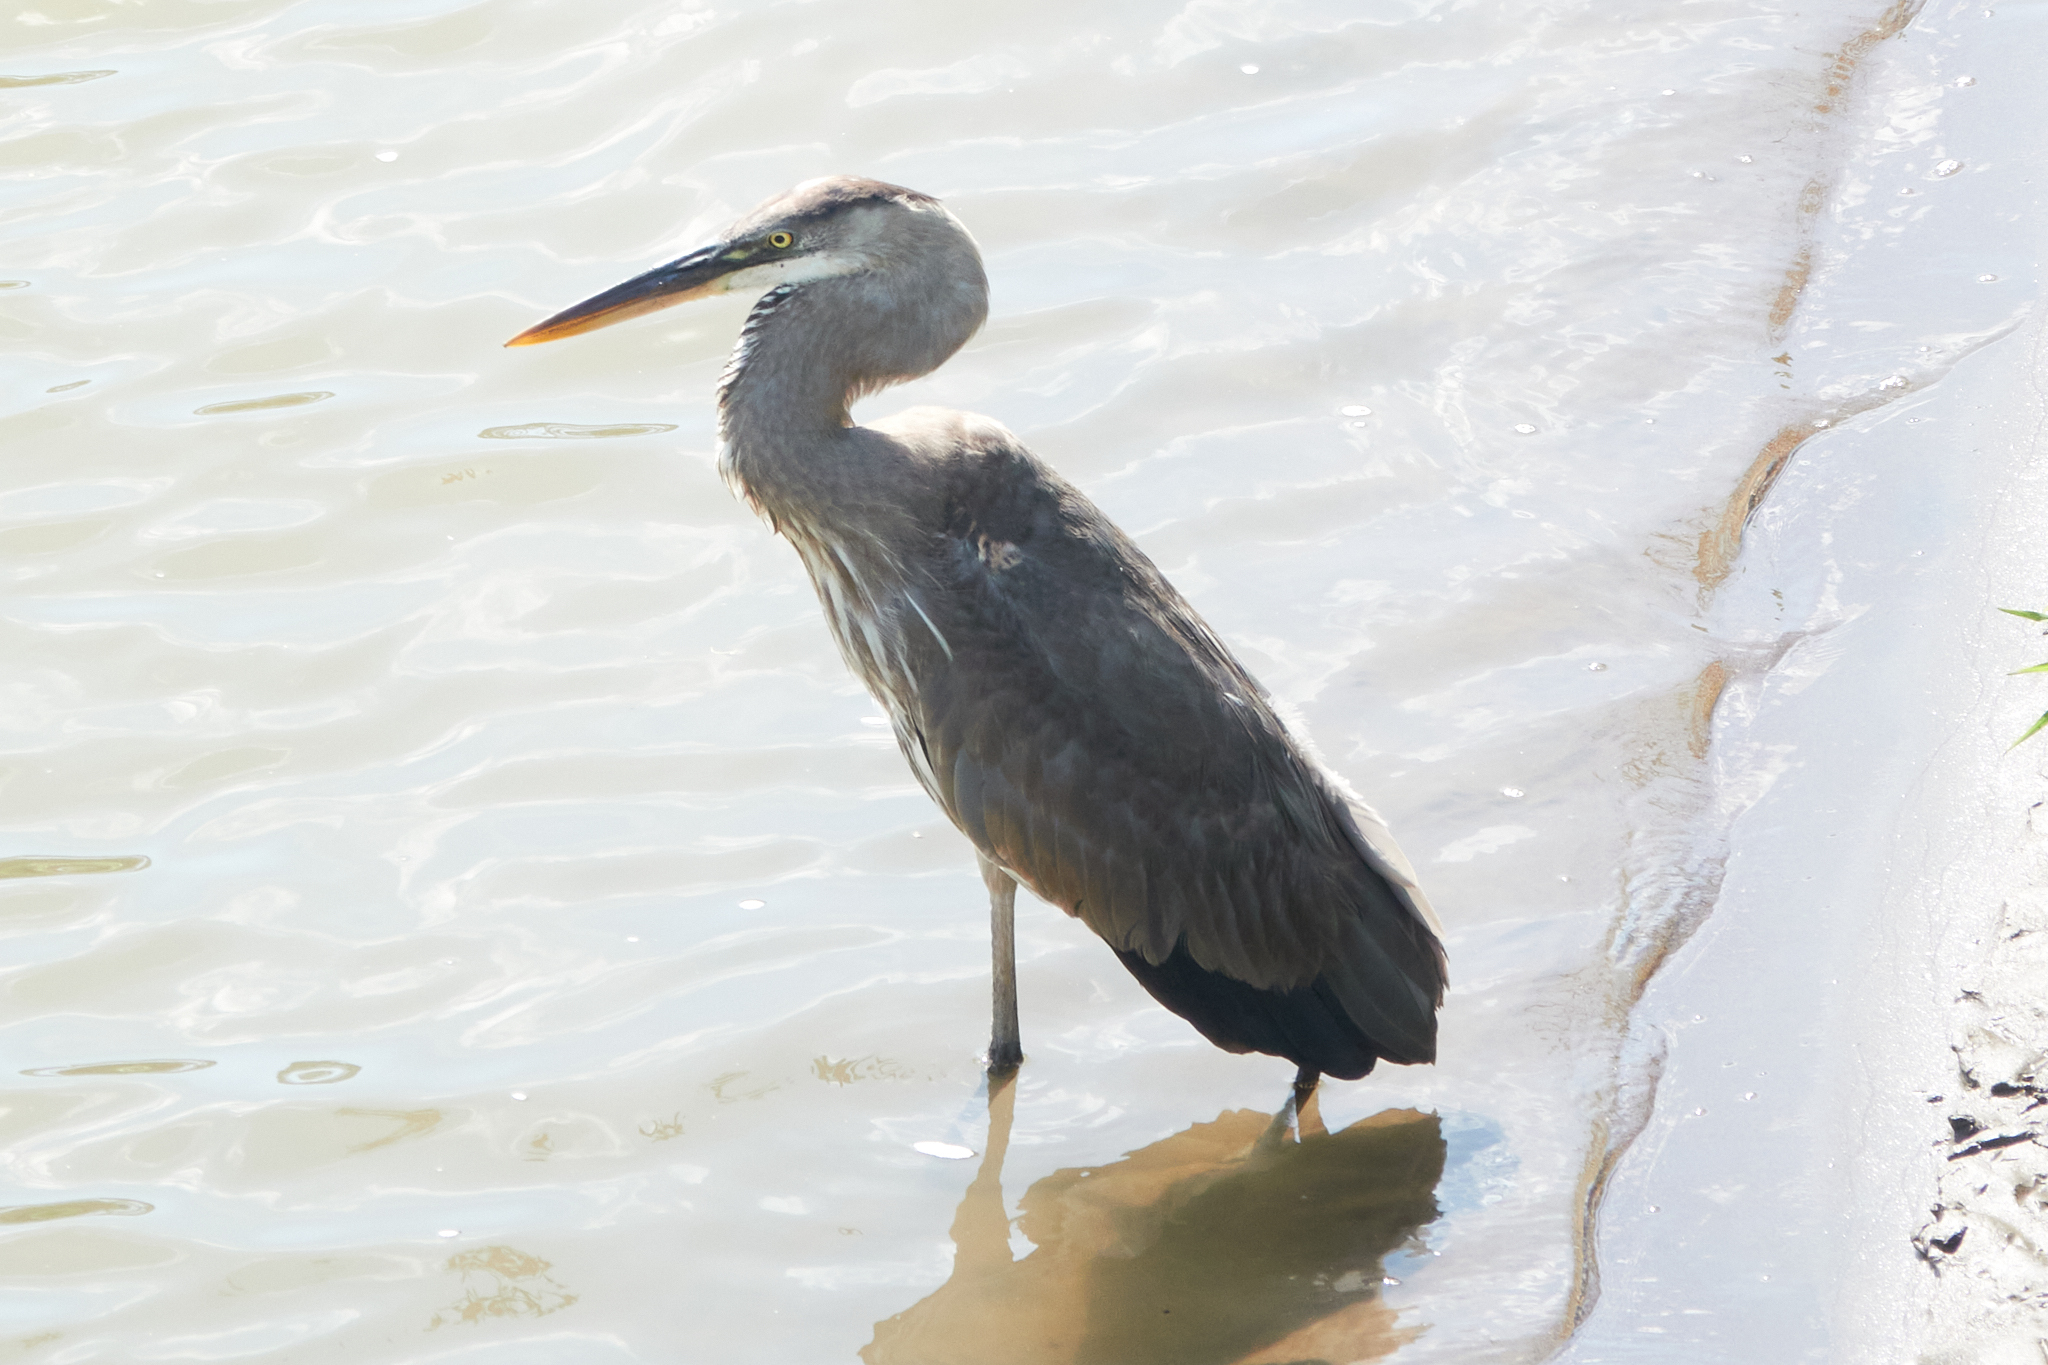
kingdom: Animalia
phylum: Chordata
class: Aves
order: Pelecaniformes
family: Ardeidae
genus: Ardea
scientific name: Ardea herodias
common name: Great blue heron
